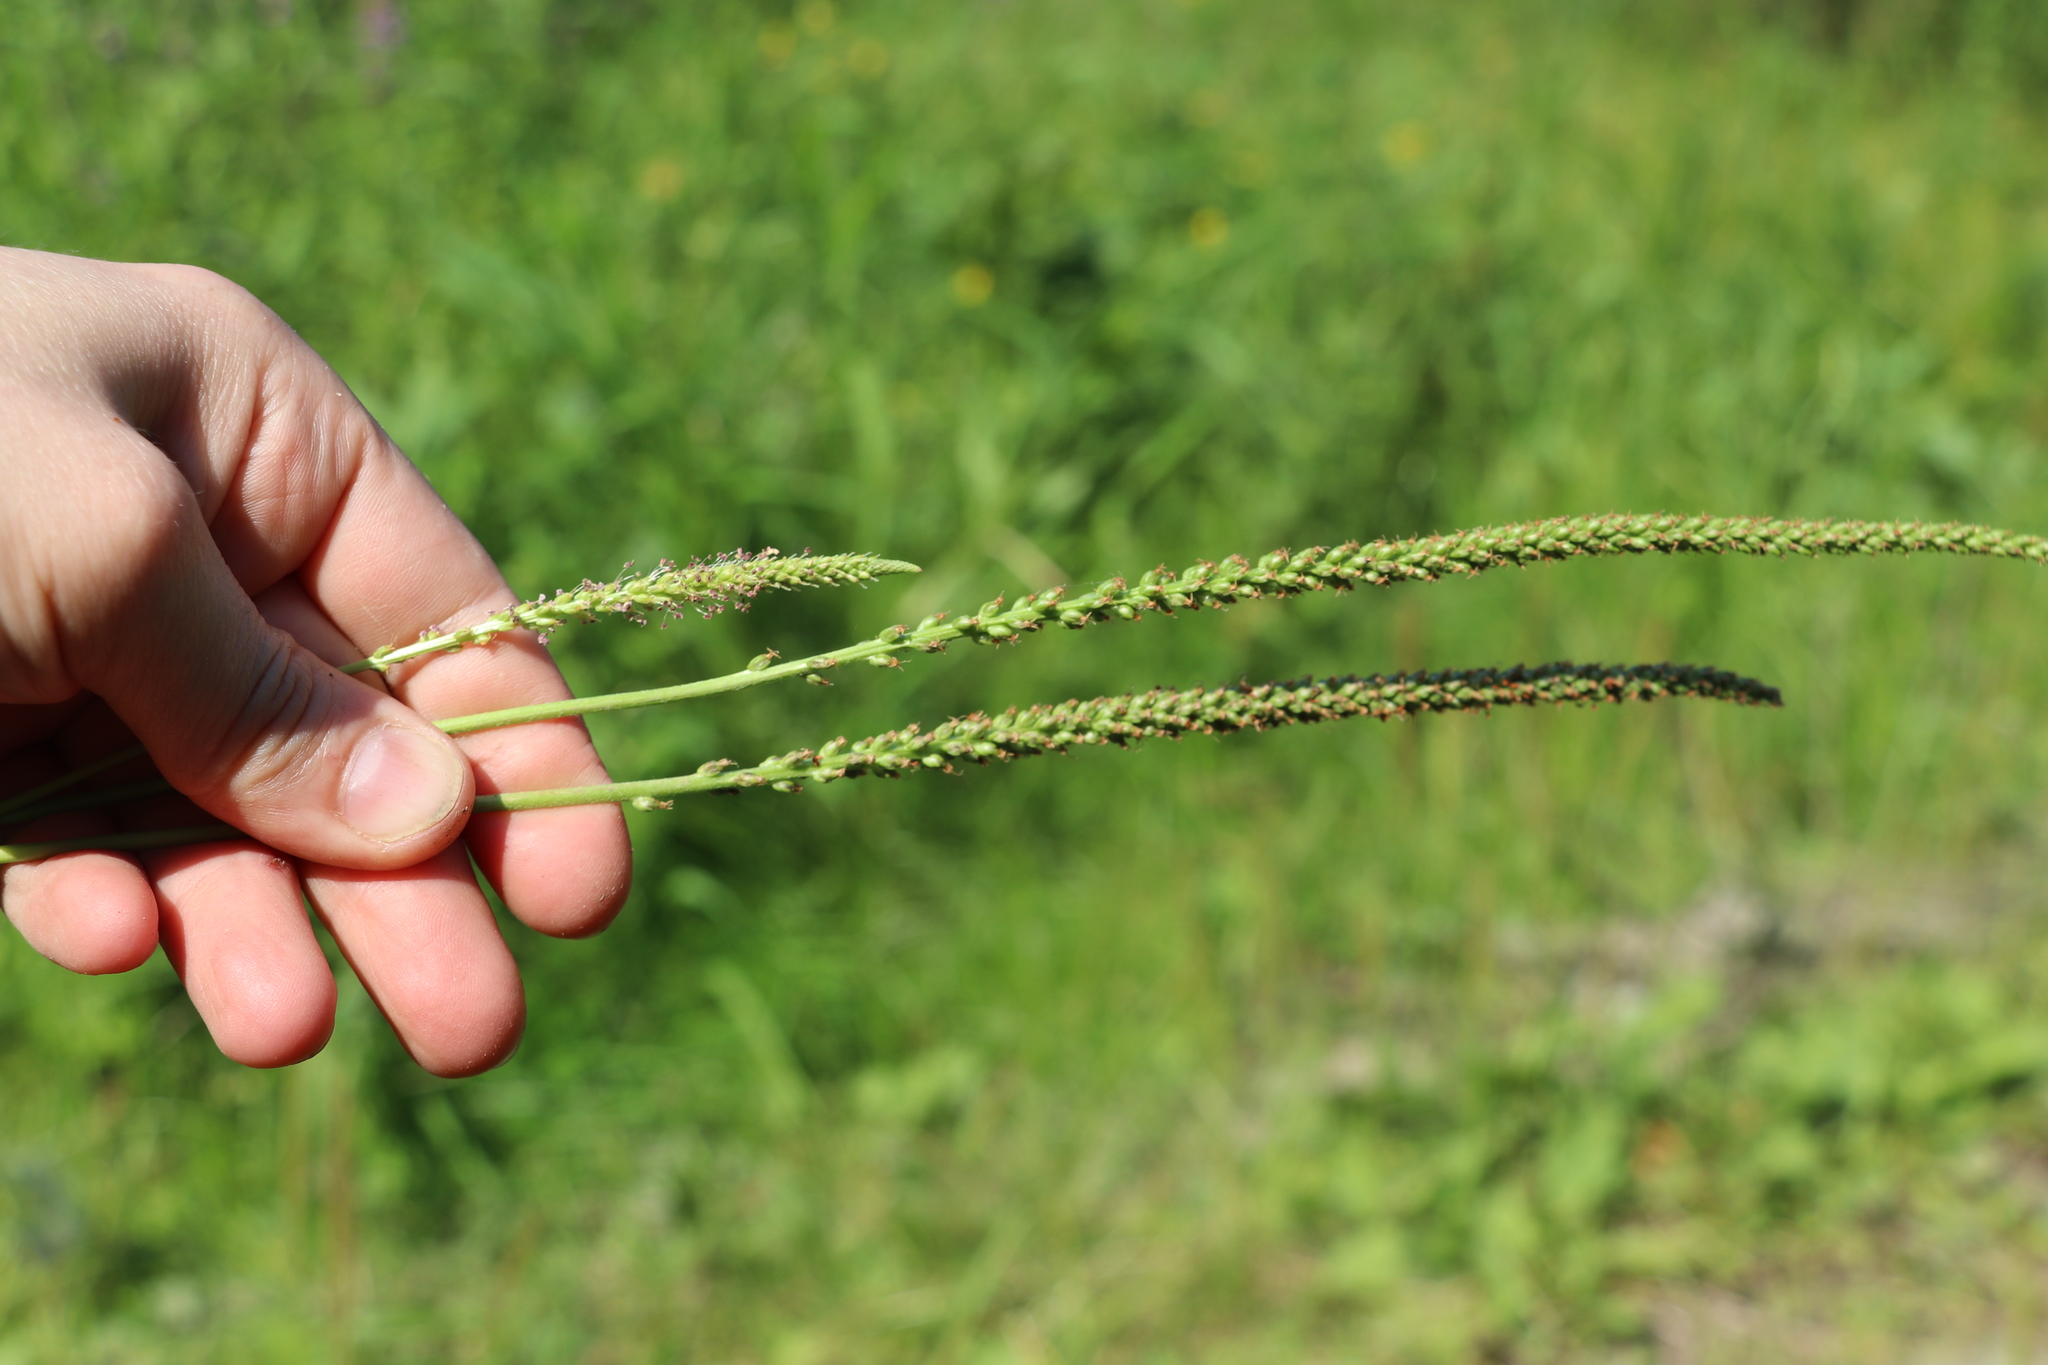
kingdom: Plantae
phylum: Tracheophyta
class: Magnoliopsida
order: Lamiales
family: Plantaginaceae
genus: Plantago
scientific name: Plantago major
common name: Common plantain
